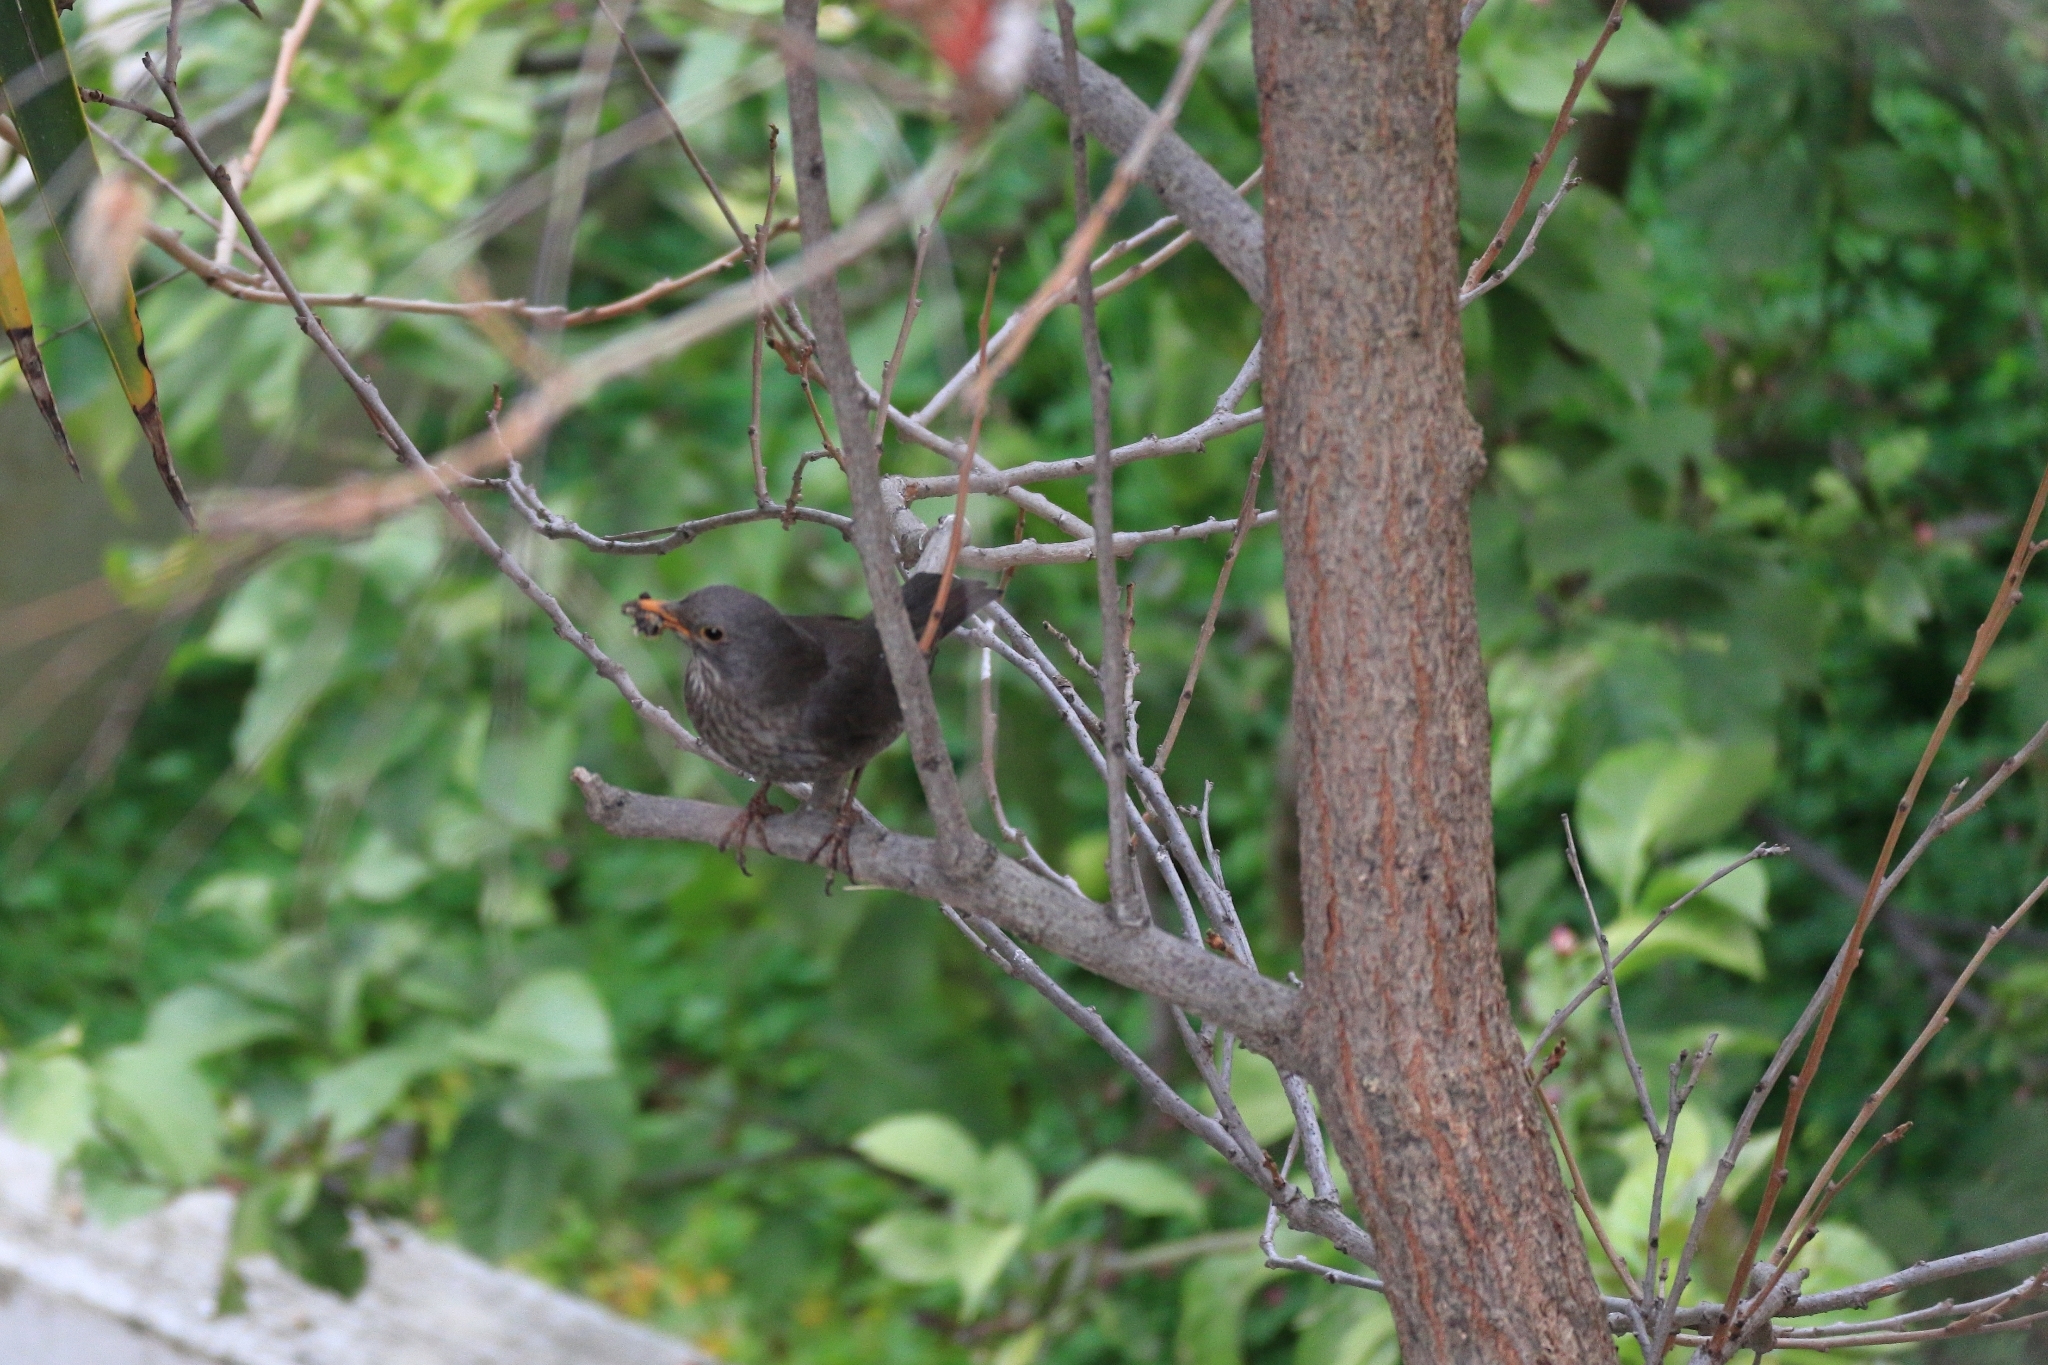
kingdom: Animalia
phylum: Chordata
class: Aves
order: Passeriformes
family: Turdidae
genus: Turdus
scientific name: Turdus merula
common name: Common blackbird
